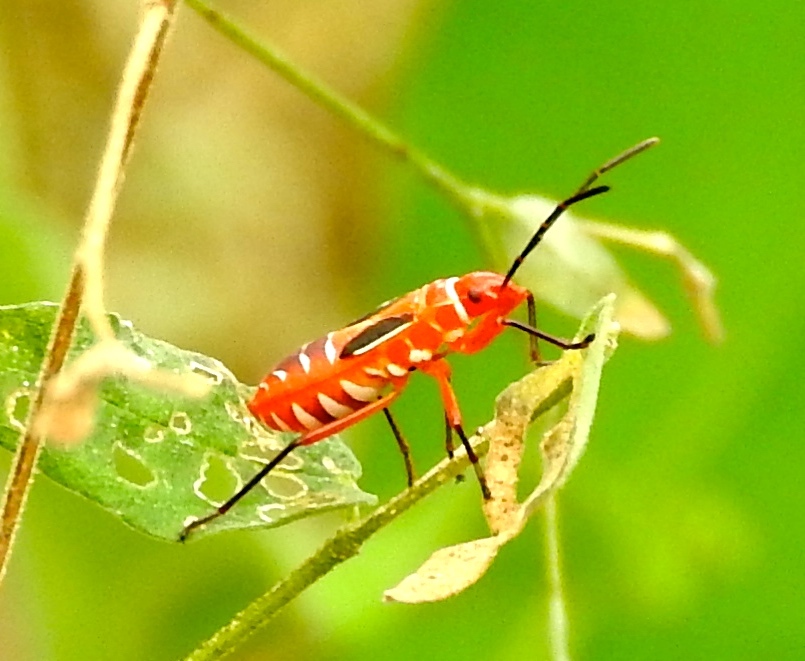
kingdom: Animalia
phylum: Arthropoda
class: Insecta
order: Hemiptera
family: Pyrrhocoridae
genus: Dysdercus
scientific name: Dysdercus
